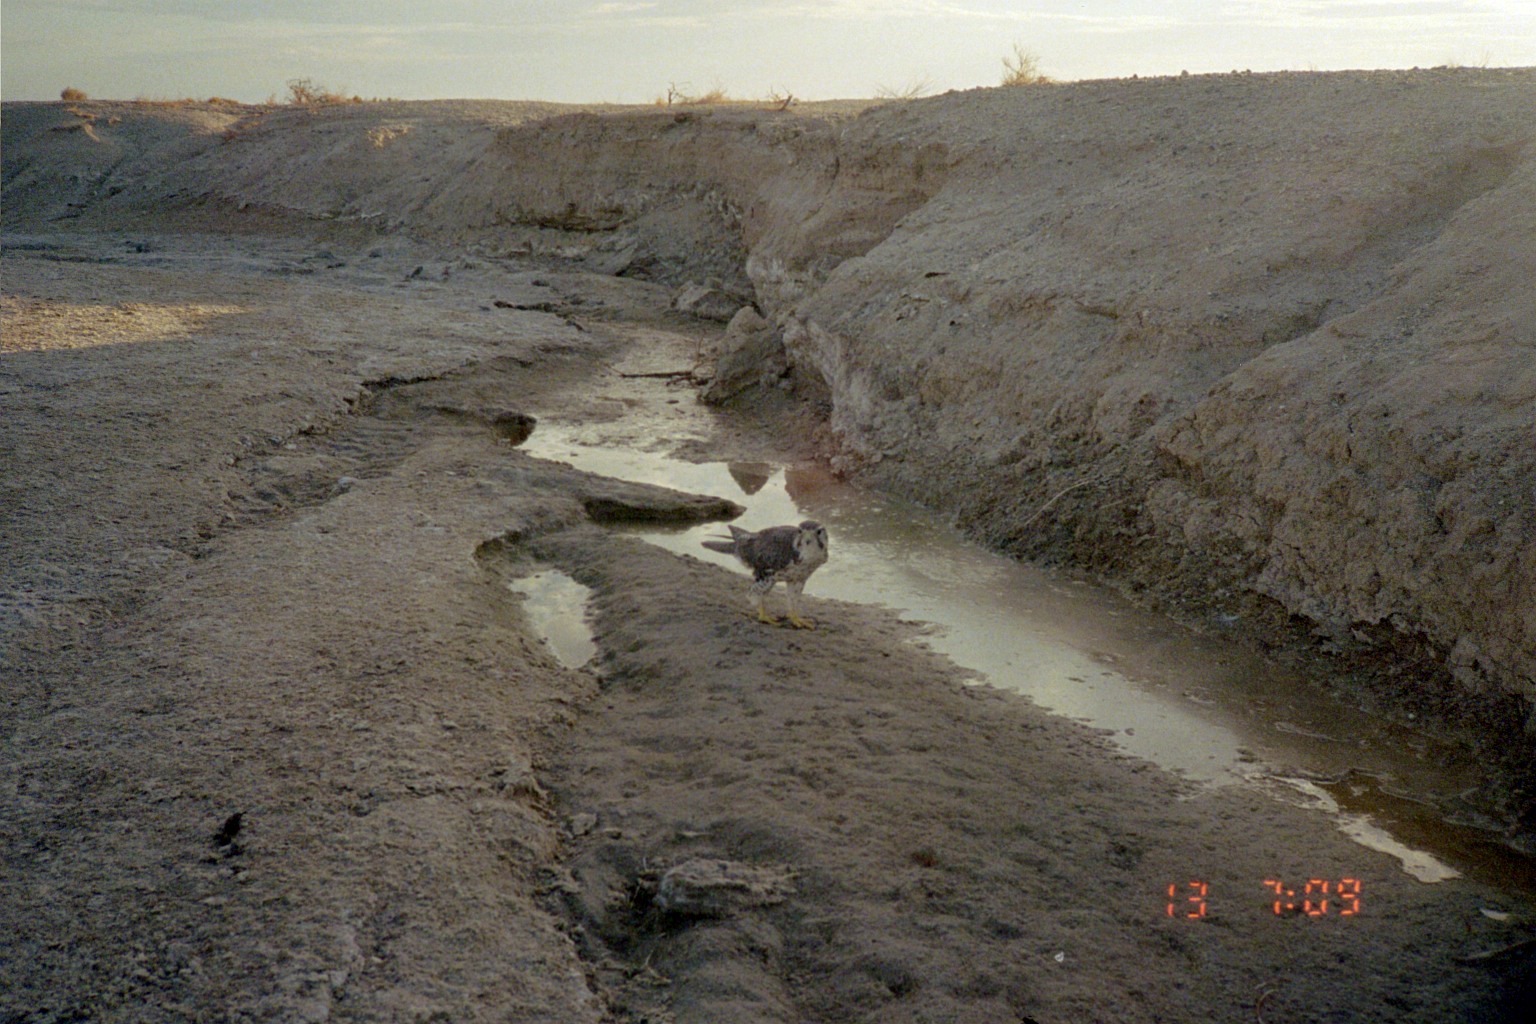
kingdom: Animalia
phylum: Chordata
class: Aves
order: Falconiformes
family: Falconidae
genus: Falco
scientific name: Falco mexicanus
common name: Prairie falcon
